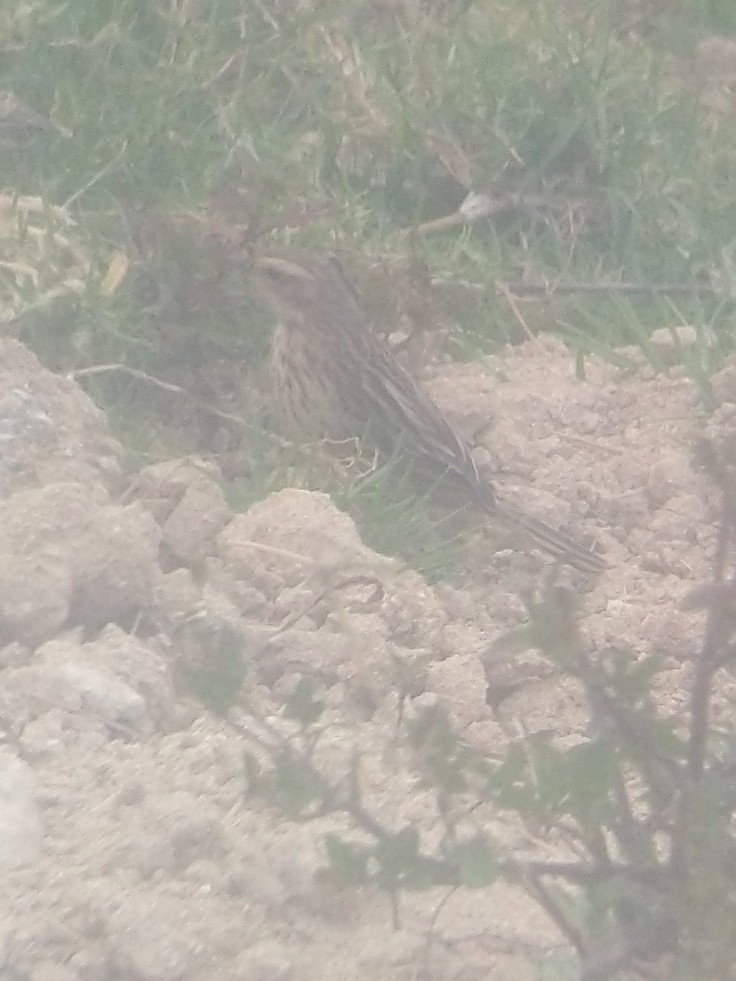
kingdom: Animalia
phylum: Chordata
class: Aves
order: Passeriformes
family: Motacillidae
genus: Anthus
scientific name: Anthus nilghiriensis
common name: Nilgiri pipit
